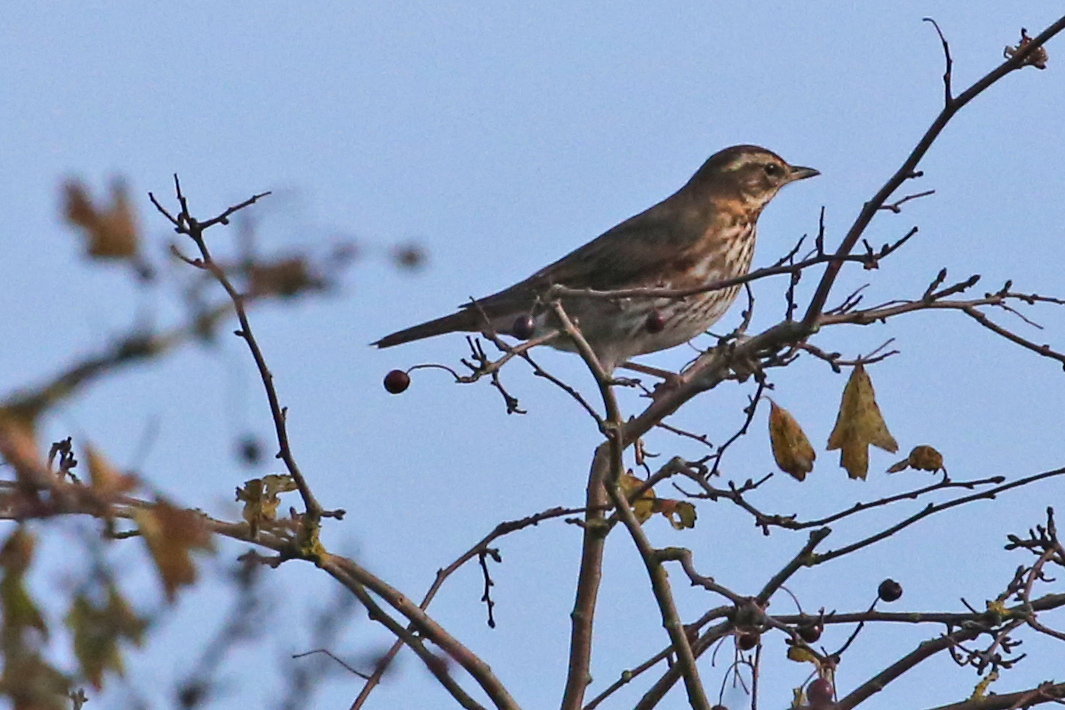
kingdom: Animalia
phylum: Chordata
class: Aves
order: Passeriformes
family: Turdidae
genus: Turdus
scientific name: Turdus iliacus
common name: Redwing
